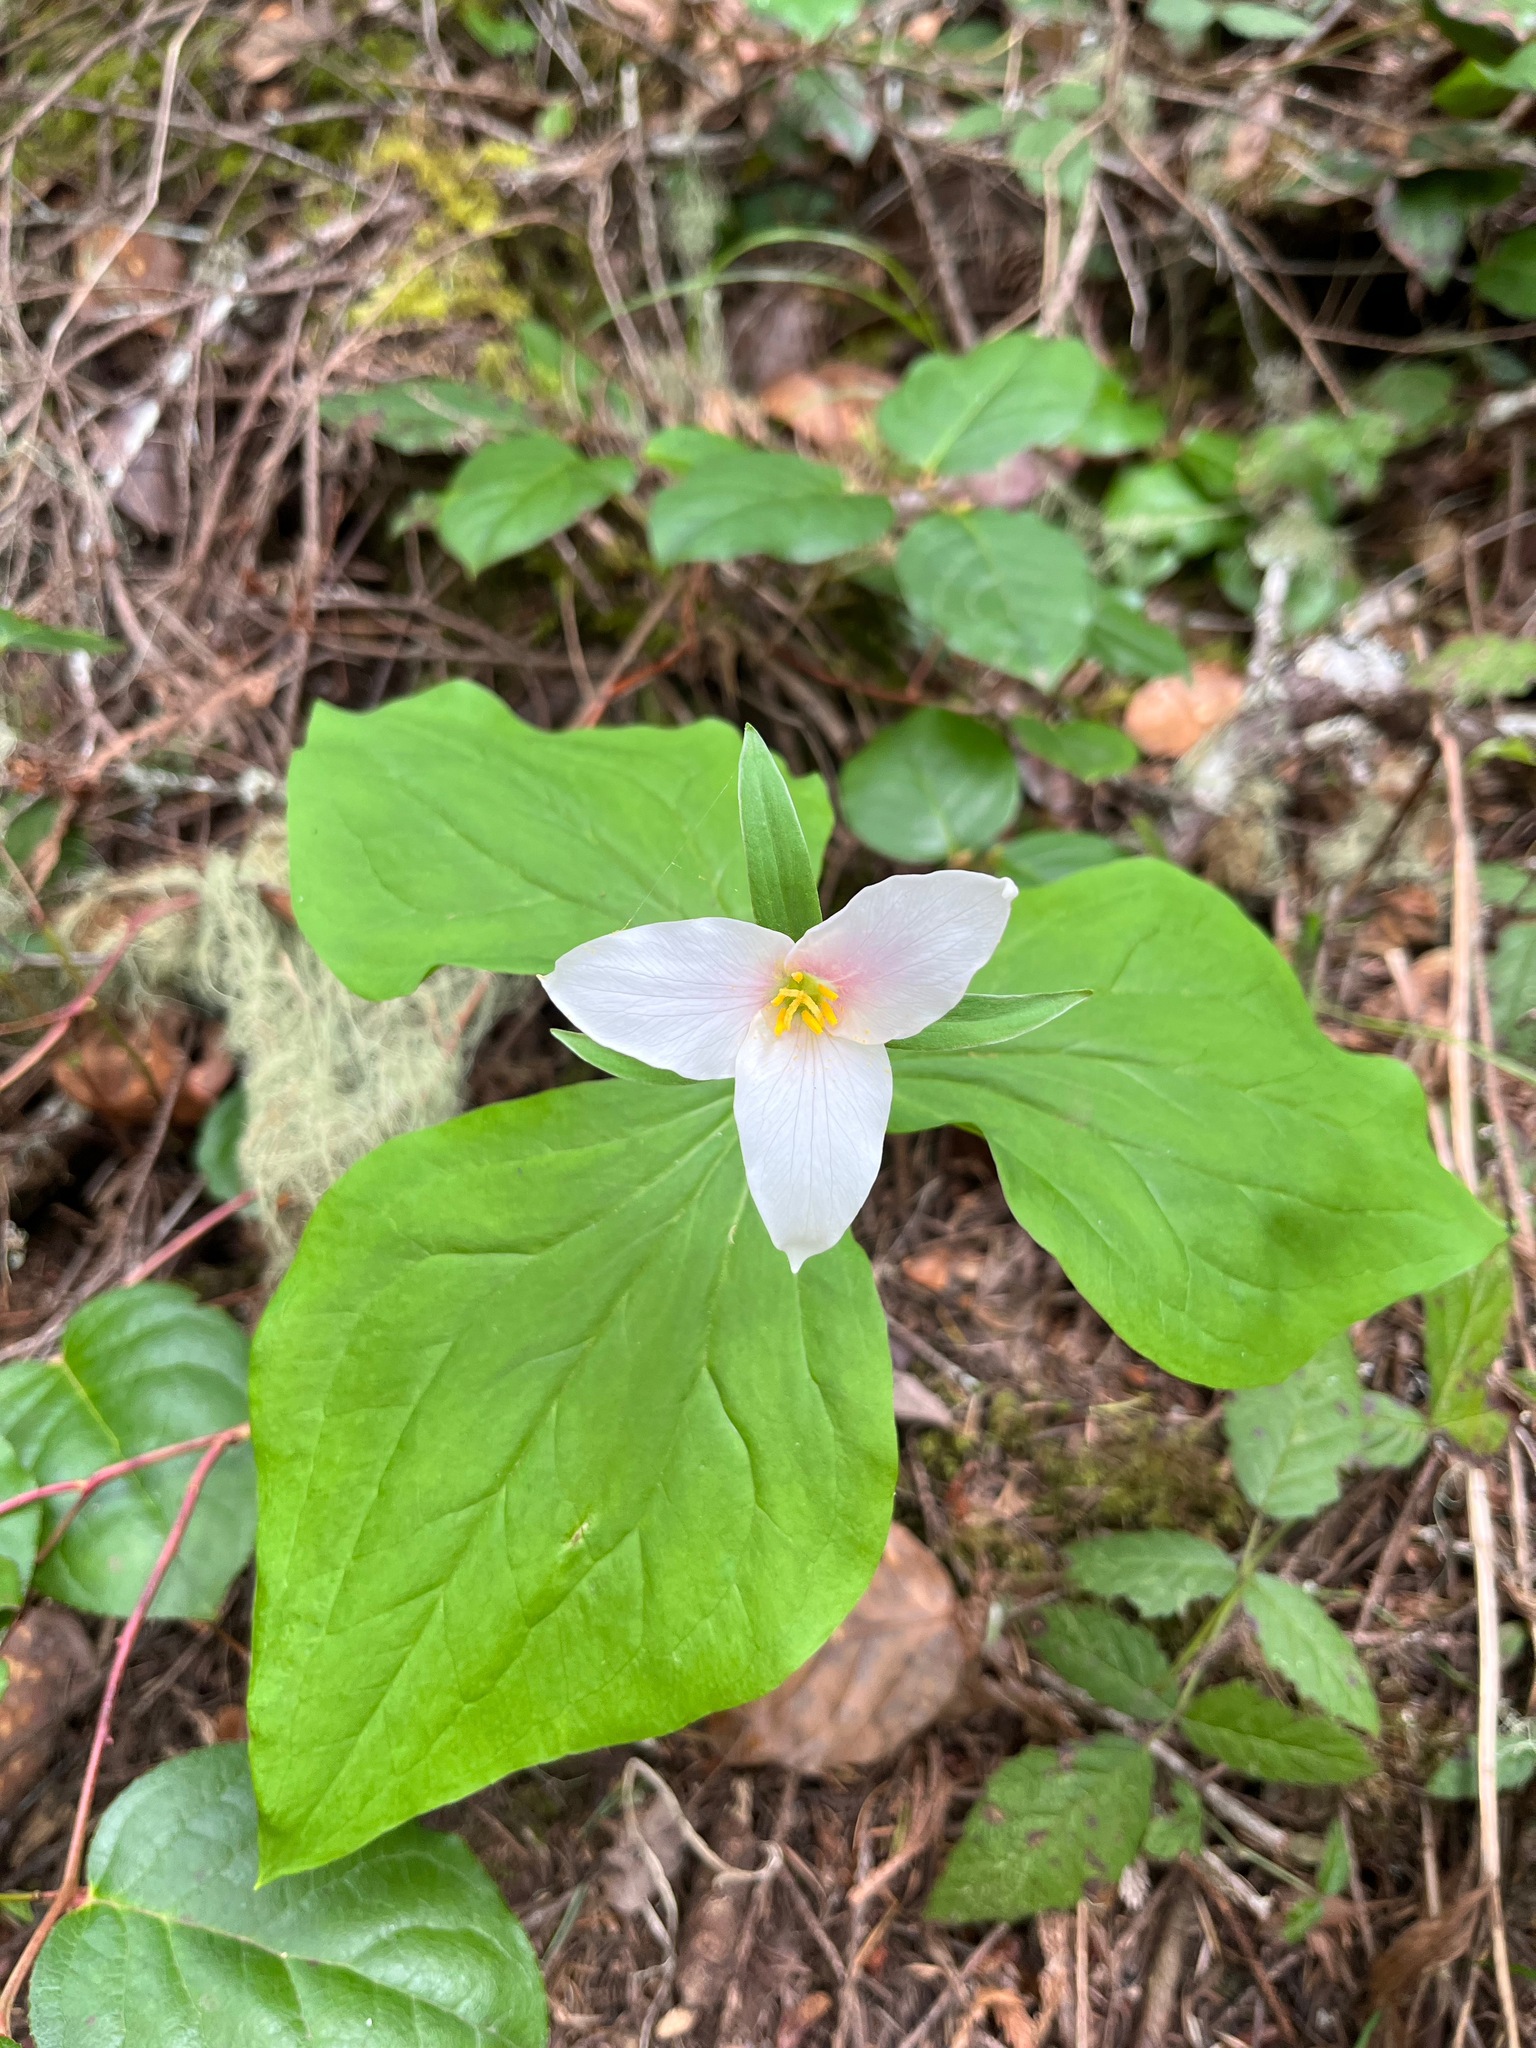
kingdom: Plantae
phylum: Tracheophyta
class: Liliopsida
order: Liliales
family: Melanthiaceae
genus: Trillium
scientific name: Trillium ovatum
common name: Pacific trillium
